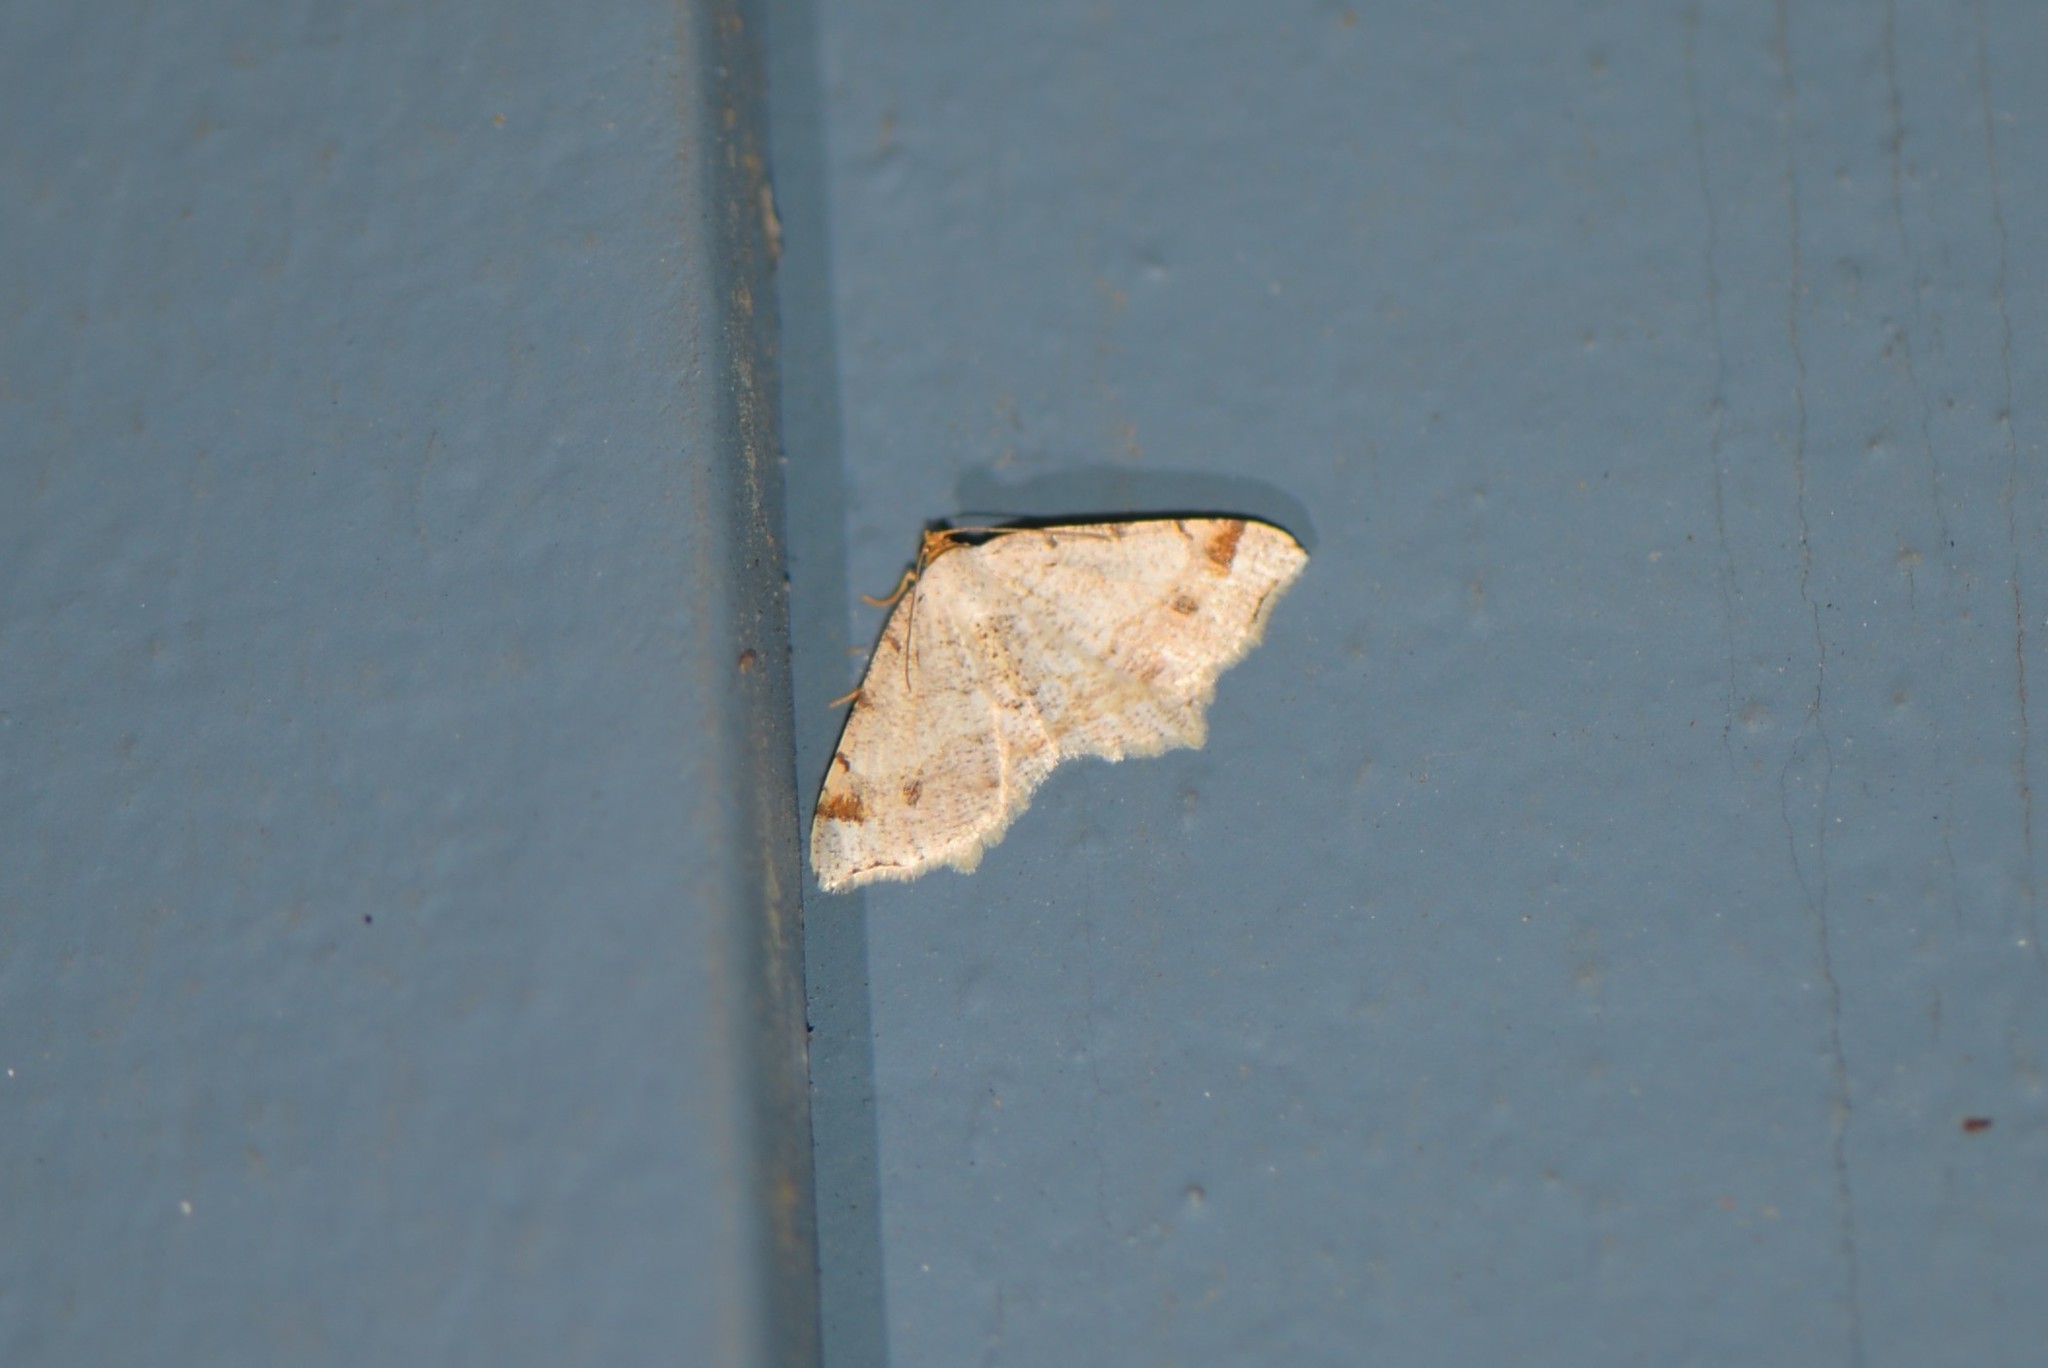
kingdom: Animalia
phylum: Arthropoda
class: Insecta
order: Lepidoptera
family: Geometridae
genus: Macaria
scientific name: Macaria bisignata
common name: Red-headed inchworm
